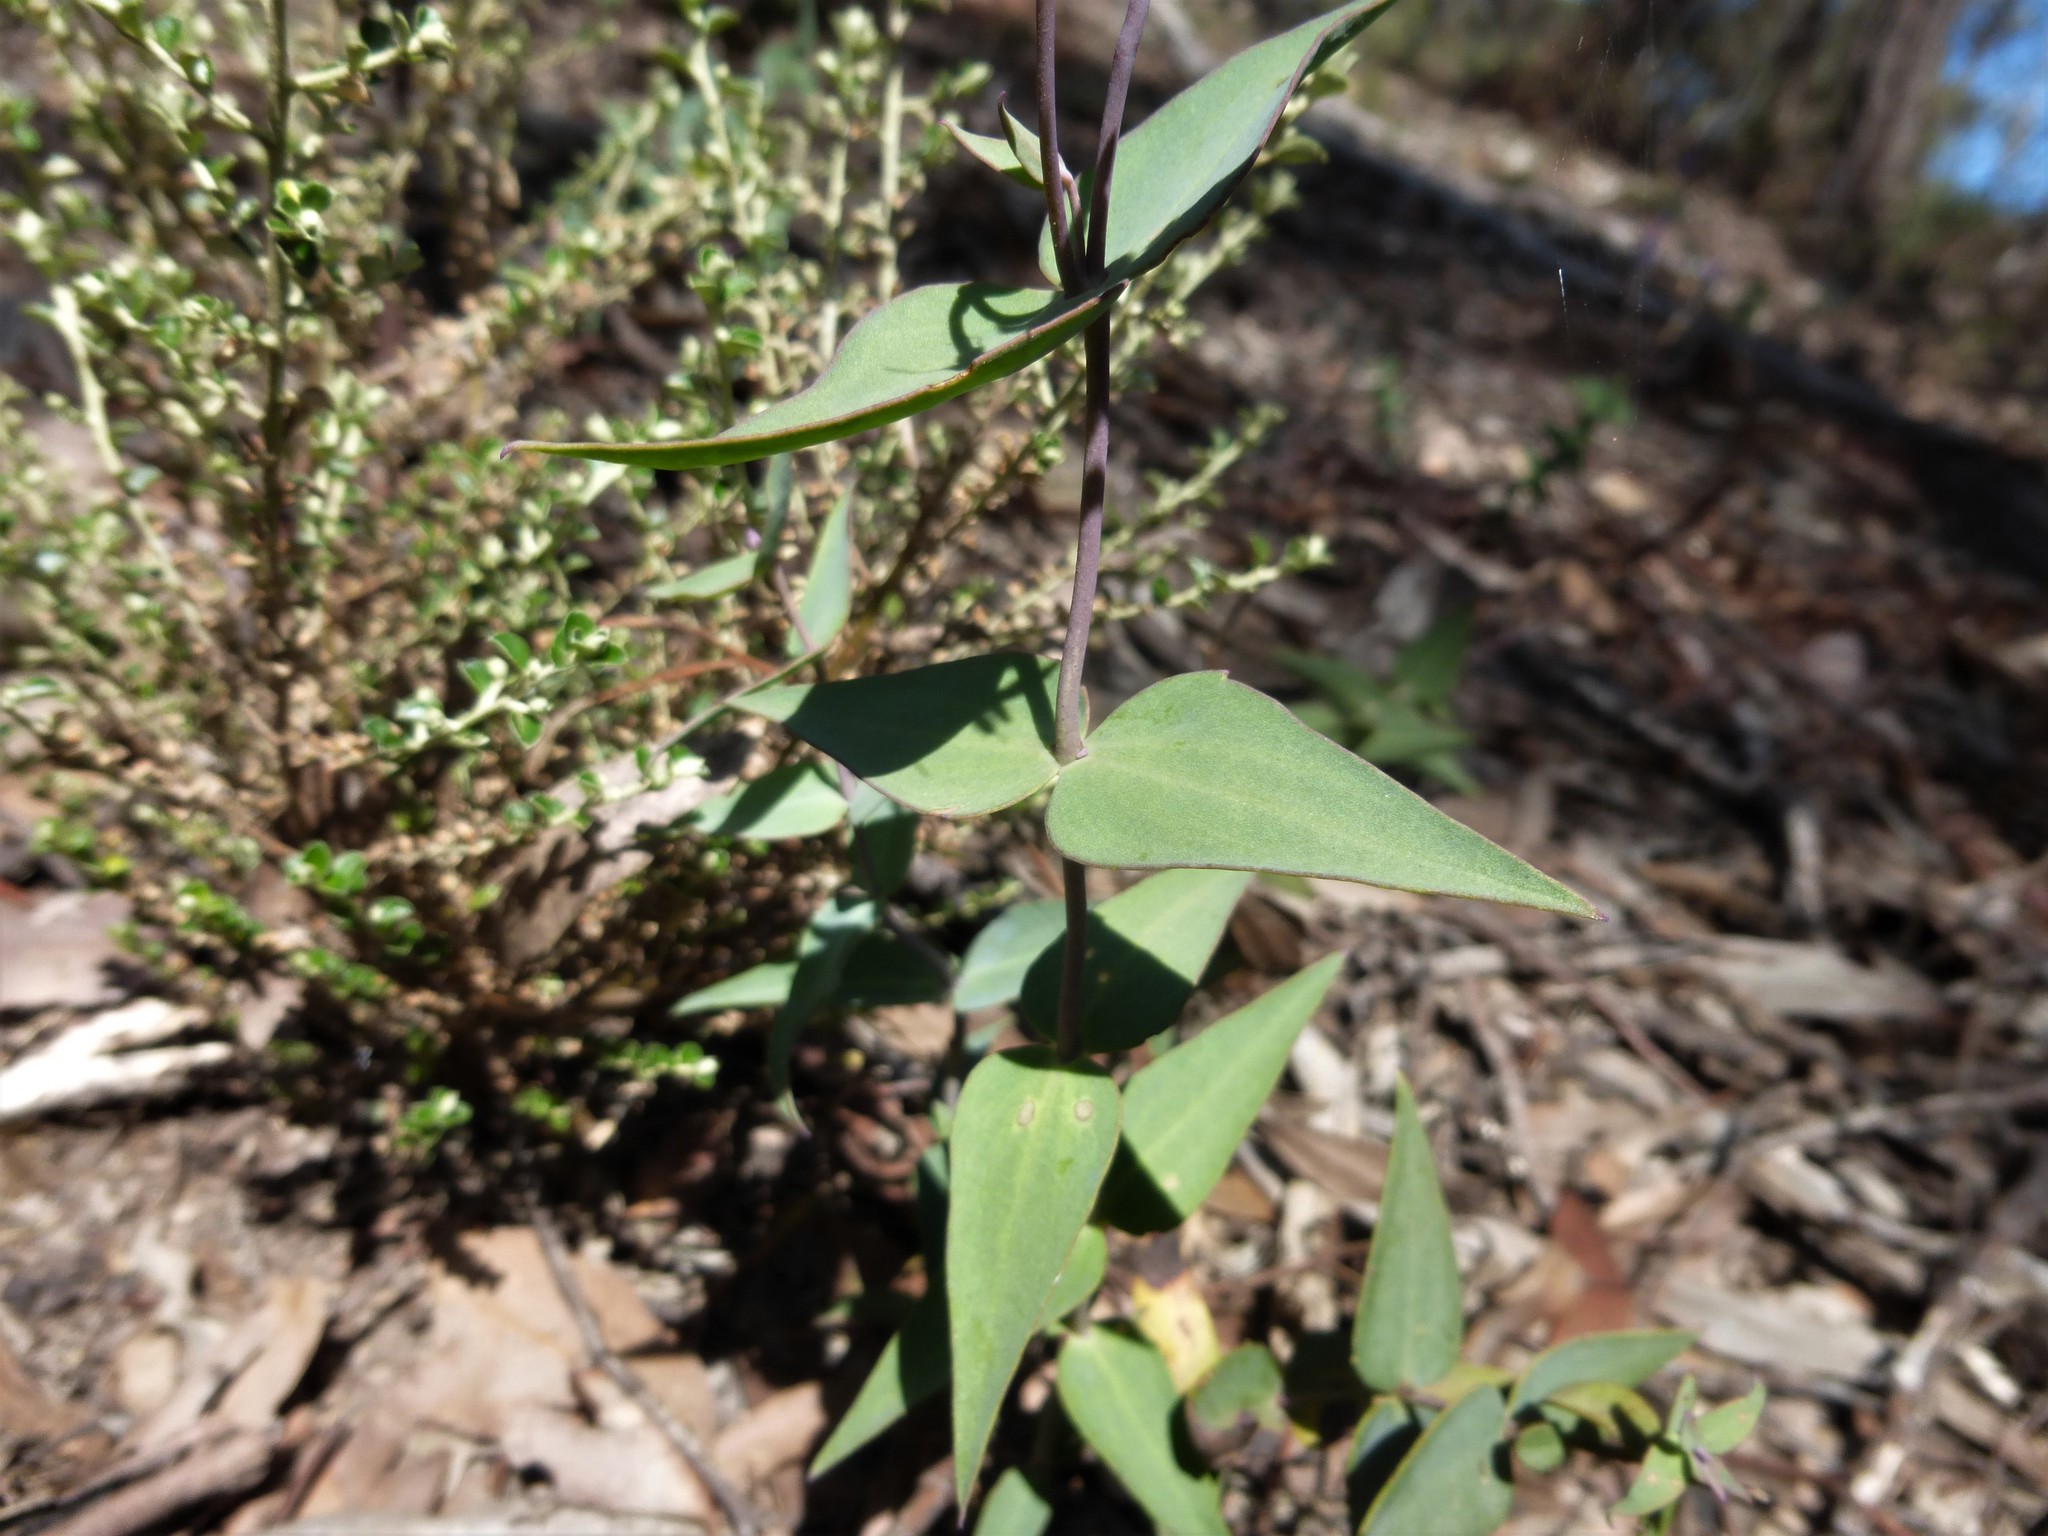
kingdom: Plantae
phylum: Tracheophyta
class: Magnoliopsida
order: Lamiales
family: Plantaginaceae
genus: Veronica
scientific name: Veronica perfoliata
